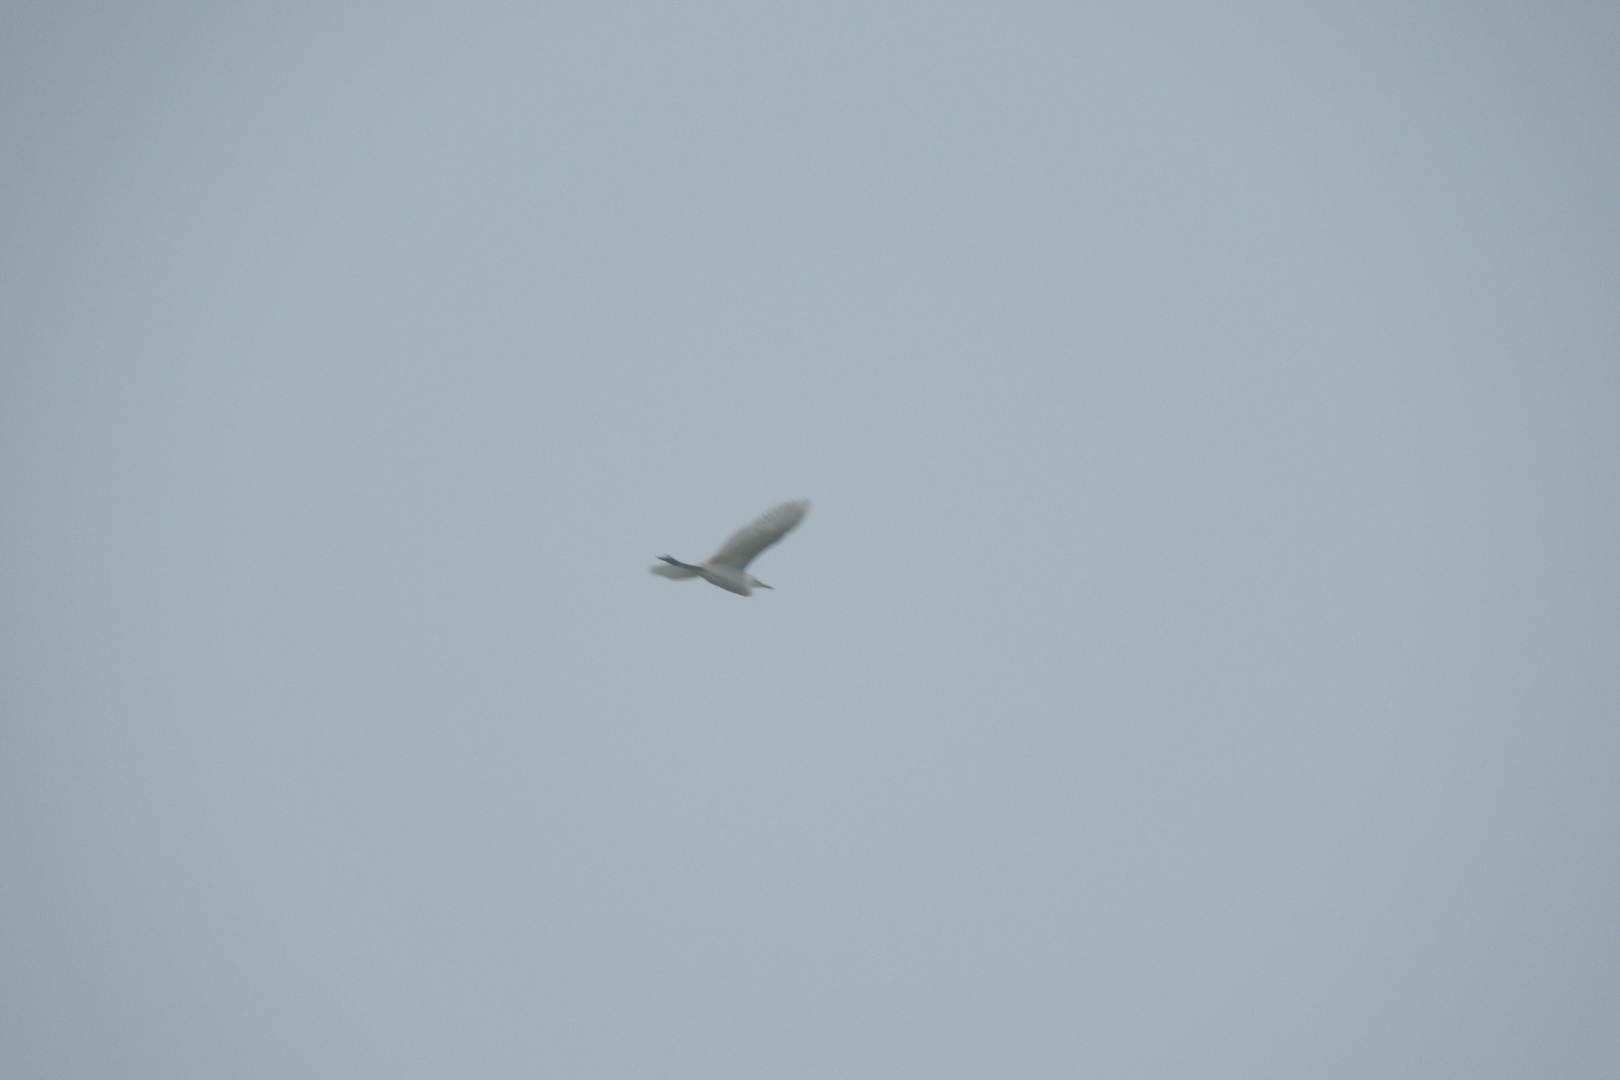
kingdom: Animalia
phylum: Chordata
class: Aves
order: Pelecaniformes
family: Ardeidae
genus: Bubulcus
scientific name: Bubulcus ibis
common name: Cattle egret
